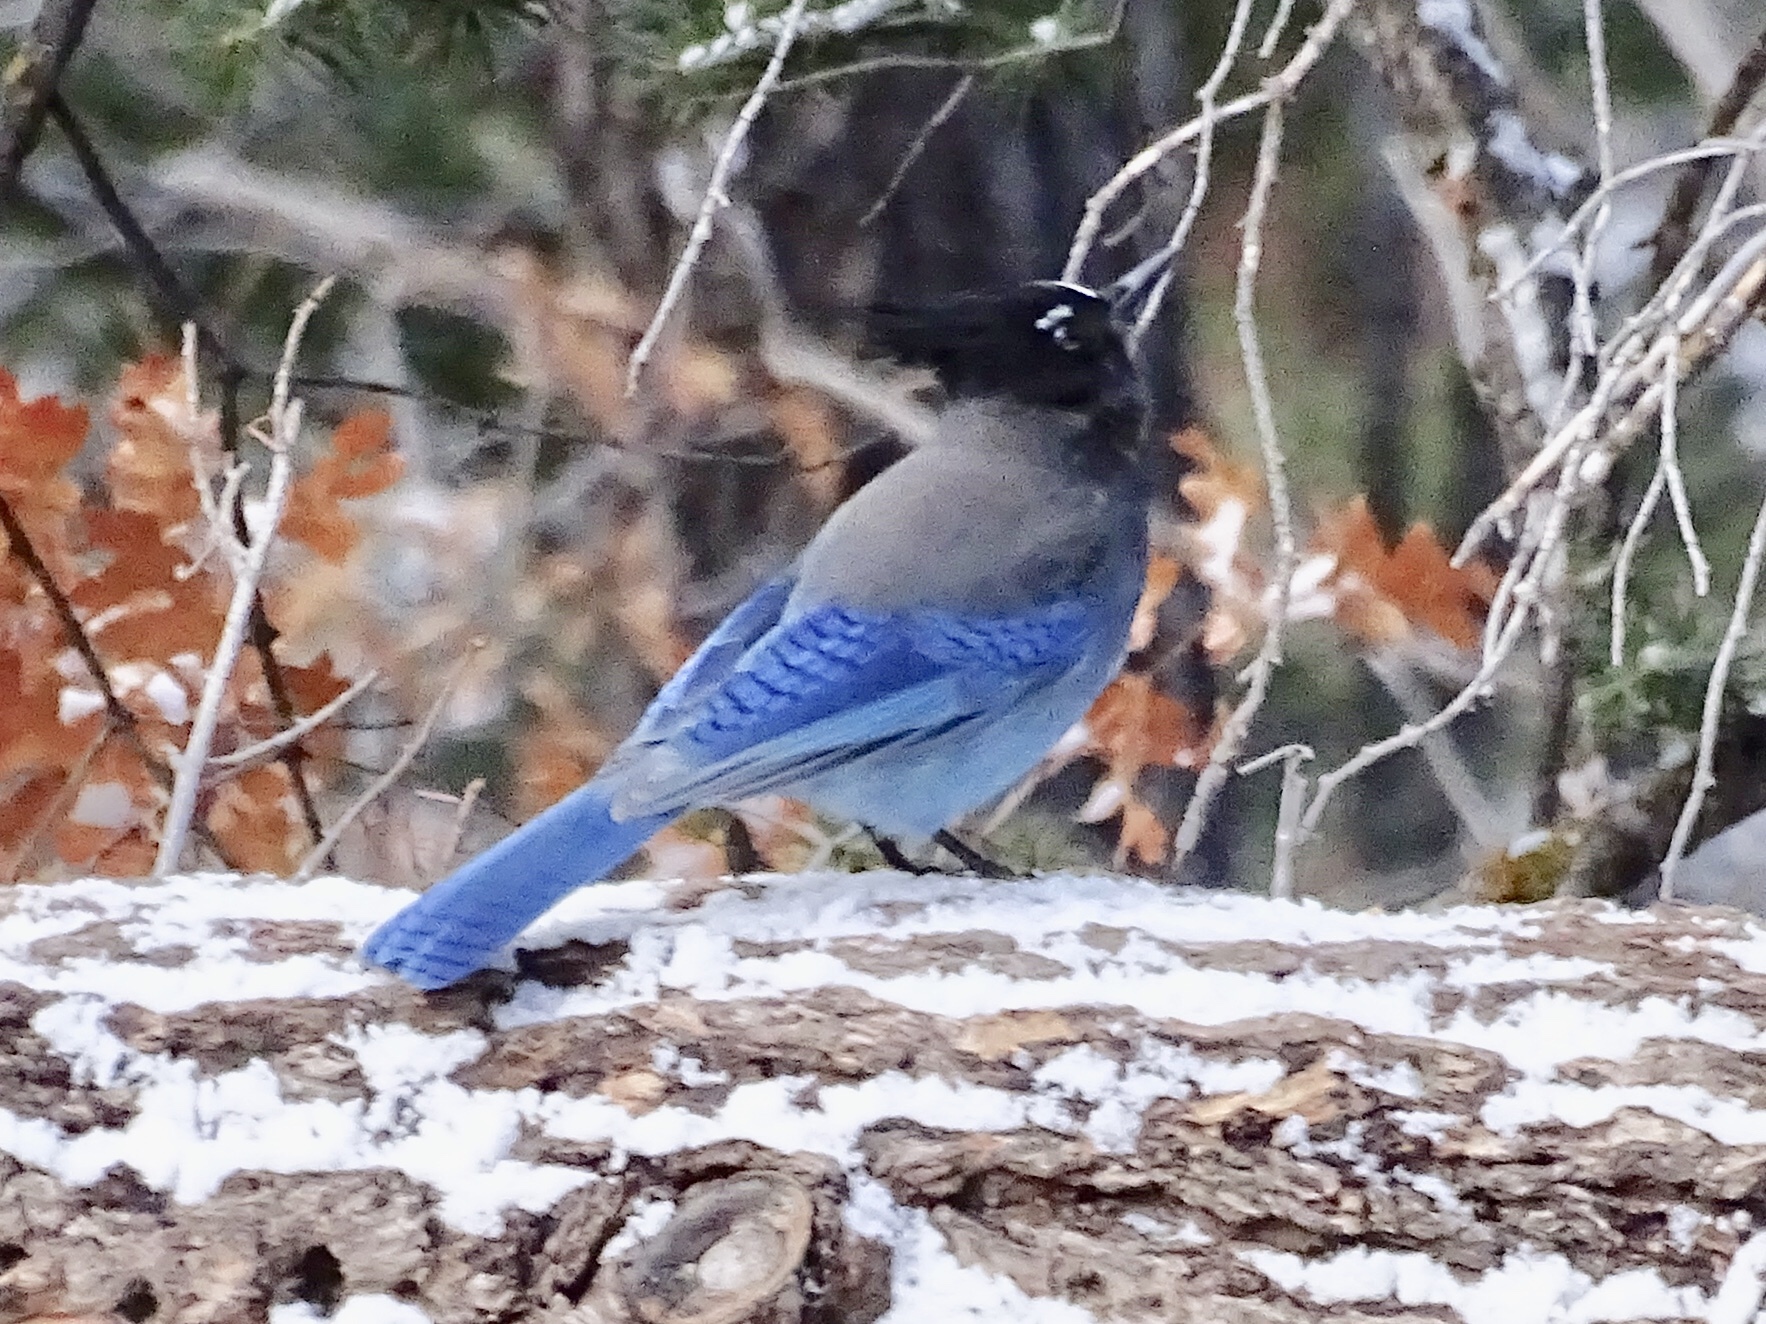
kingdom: Animalia
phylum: Chordata
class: Aves
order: Passeriformes
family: Corvidae
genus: Cyanocitta
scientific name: Cyanocitta stelleri
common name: Steller's jay
